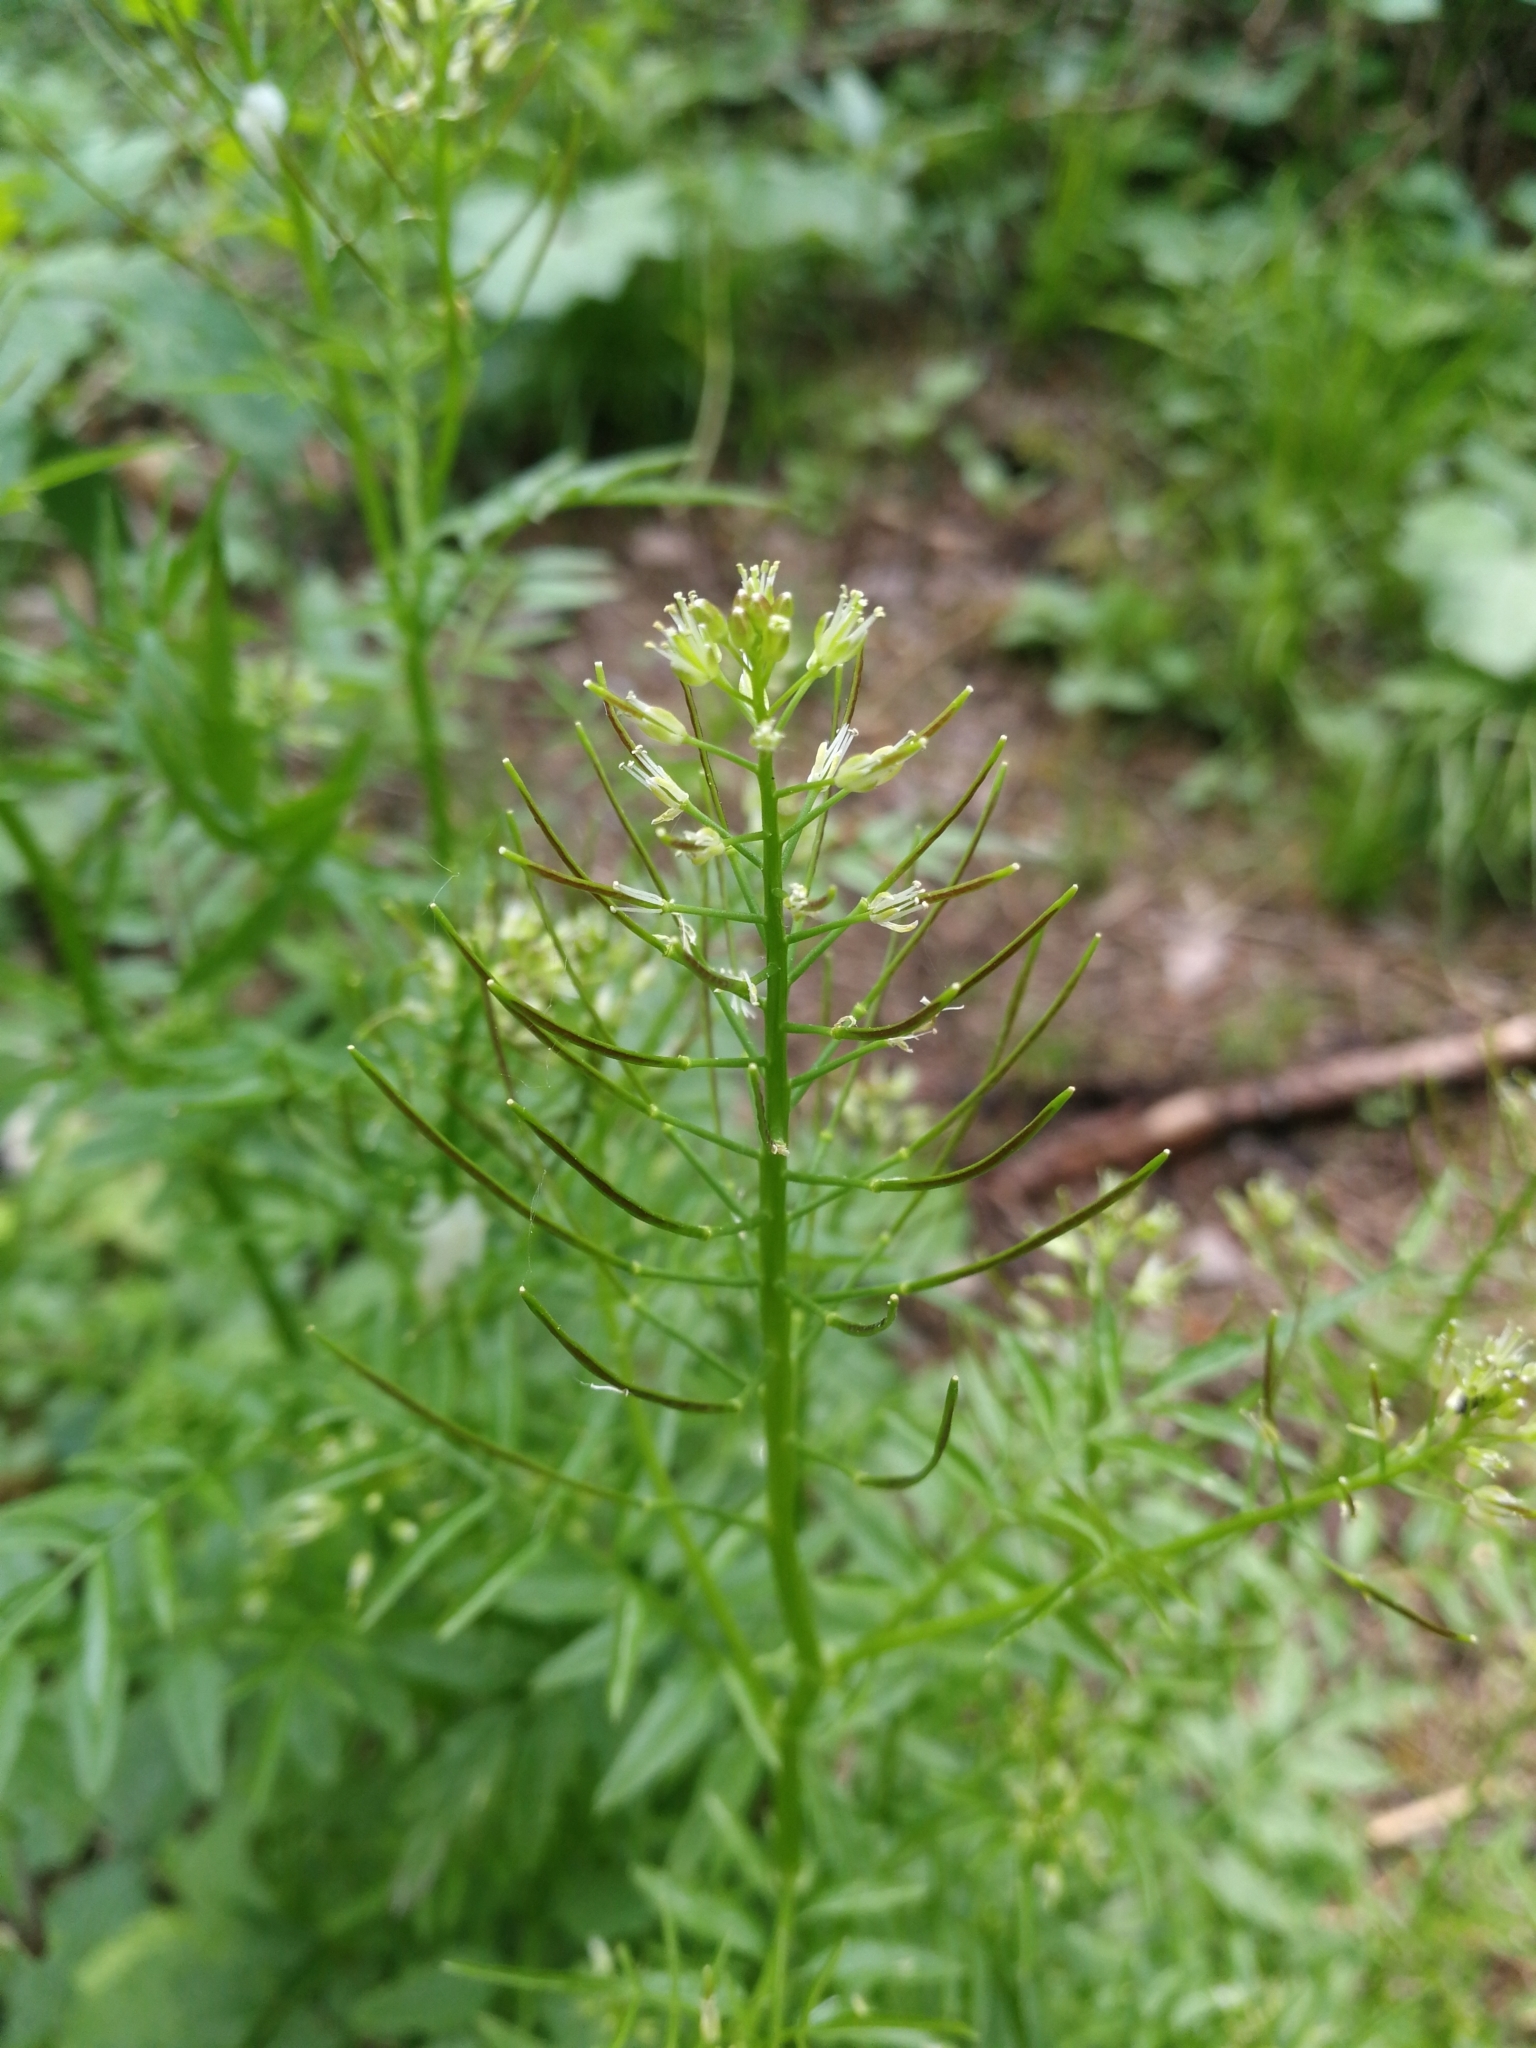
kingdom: Plantae
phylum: Tracheophyta
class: Magnoliopsida
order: Brassicales
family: Brassicaceae
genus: Cardamine
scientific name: Cardamine impatiens
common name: Narrow-leaved bitter-cress
